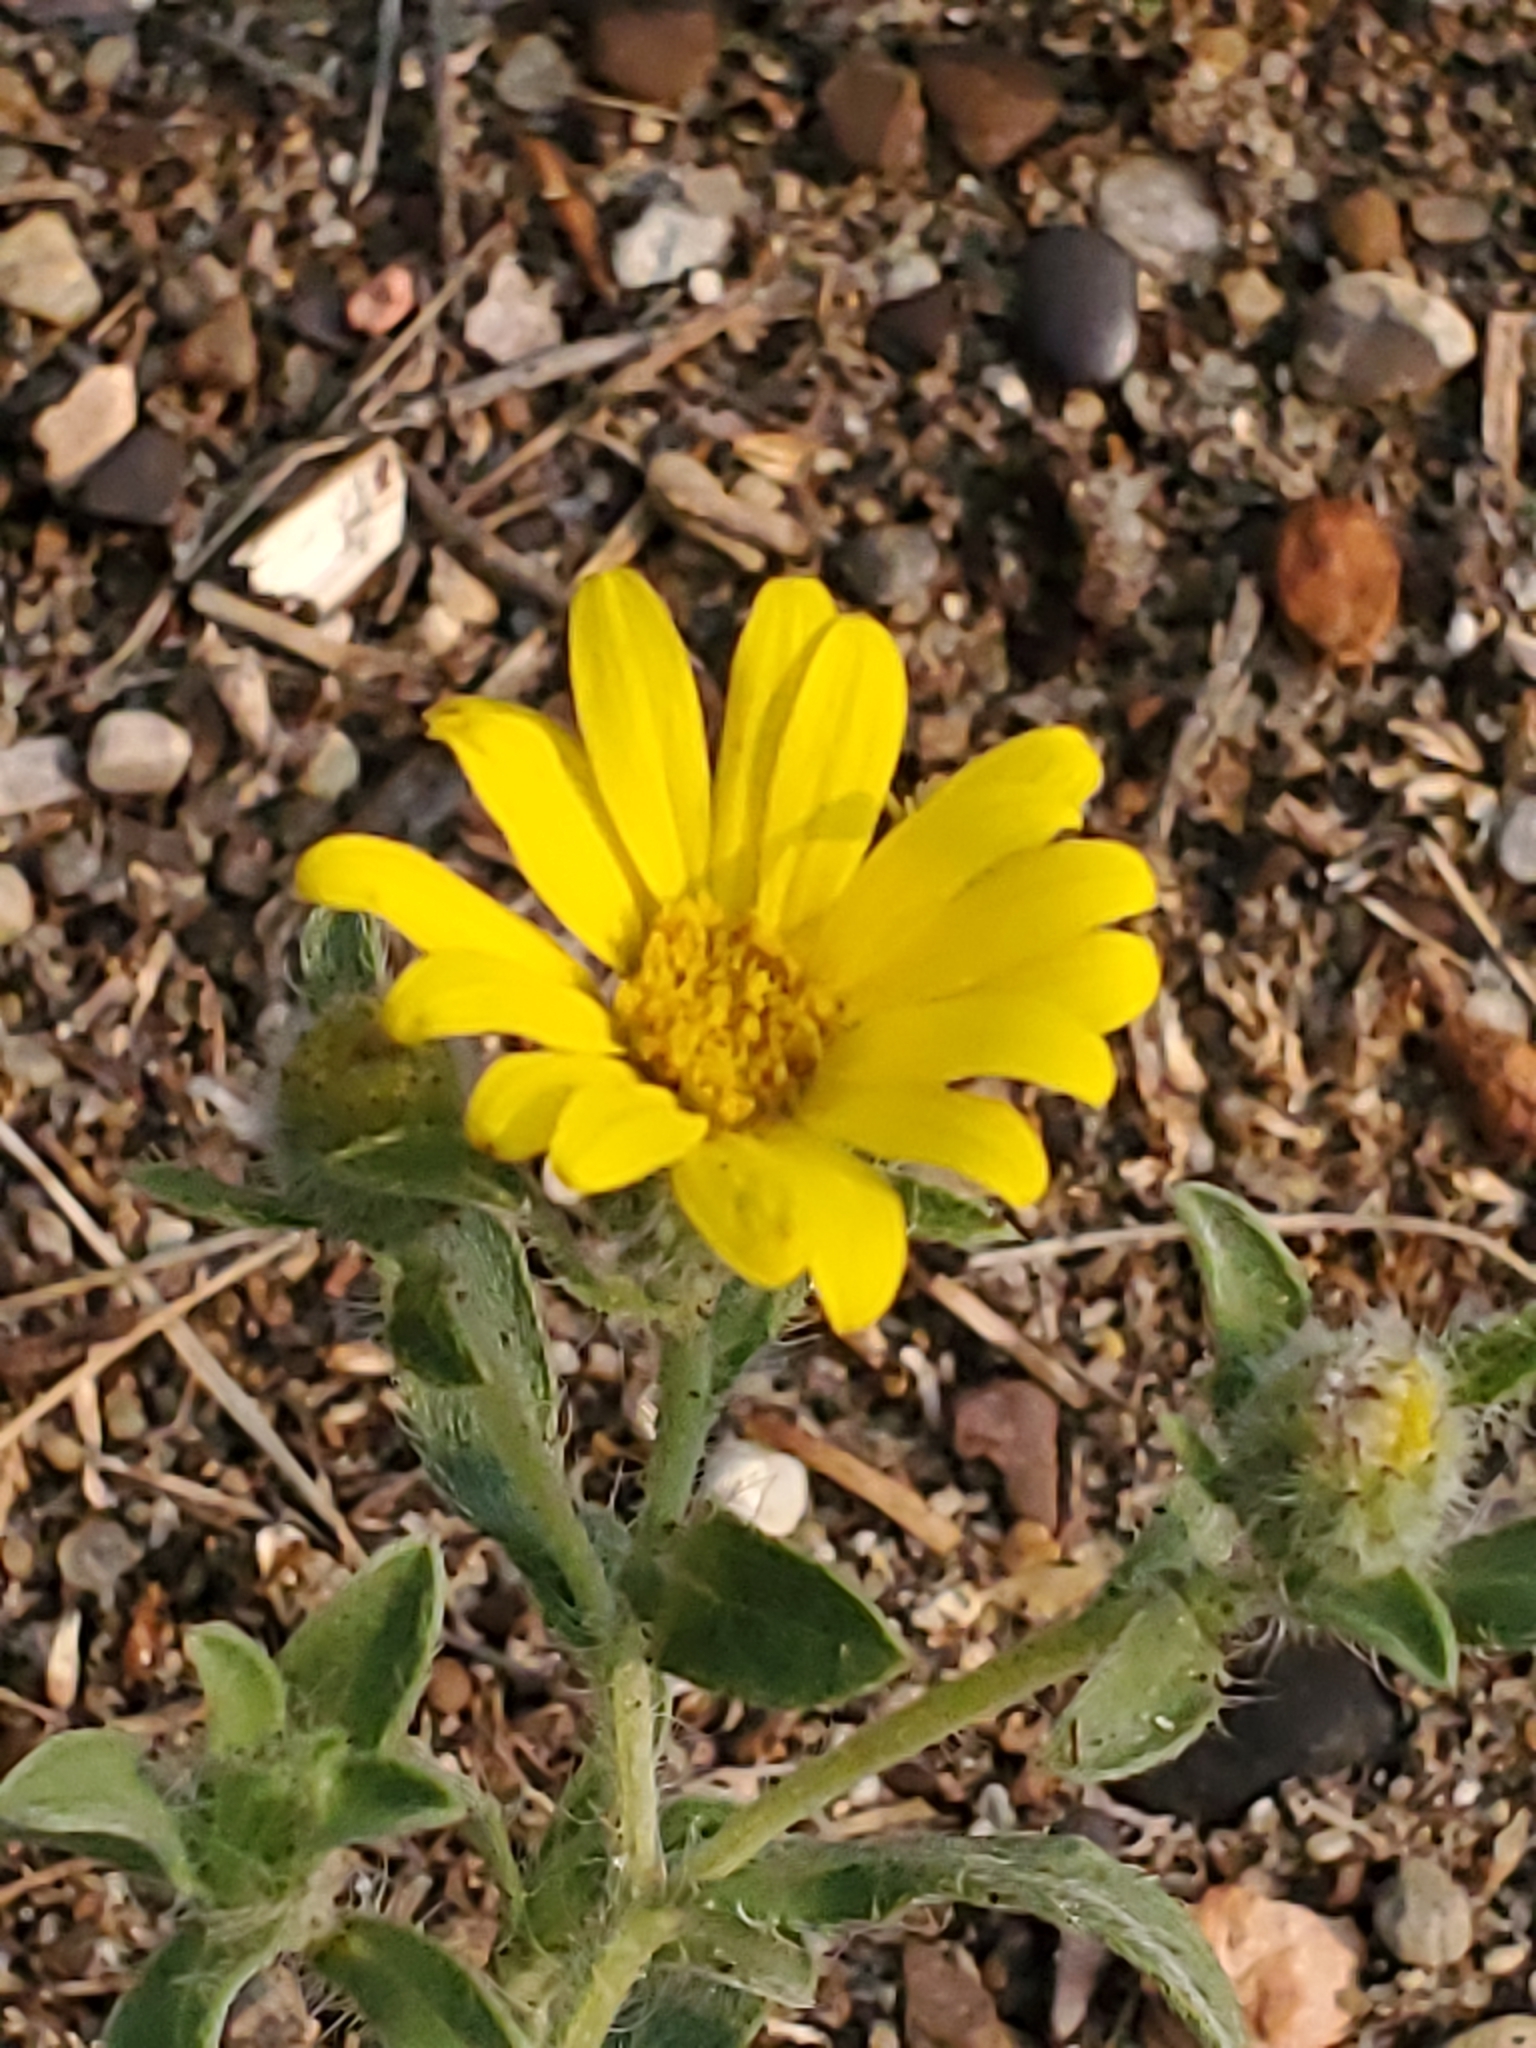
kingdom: Plantae
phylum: Tracheophyta
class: Magnoliopsida
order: Asterales
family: Asteraceae
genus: Heterotheca
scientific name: Heterotheca villosa
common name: Hairy false goldenaster
